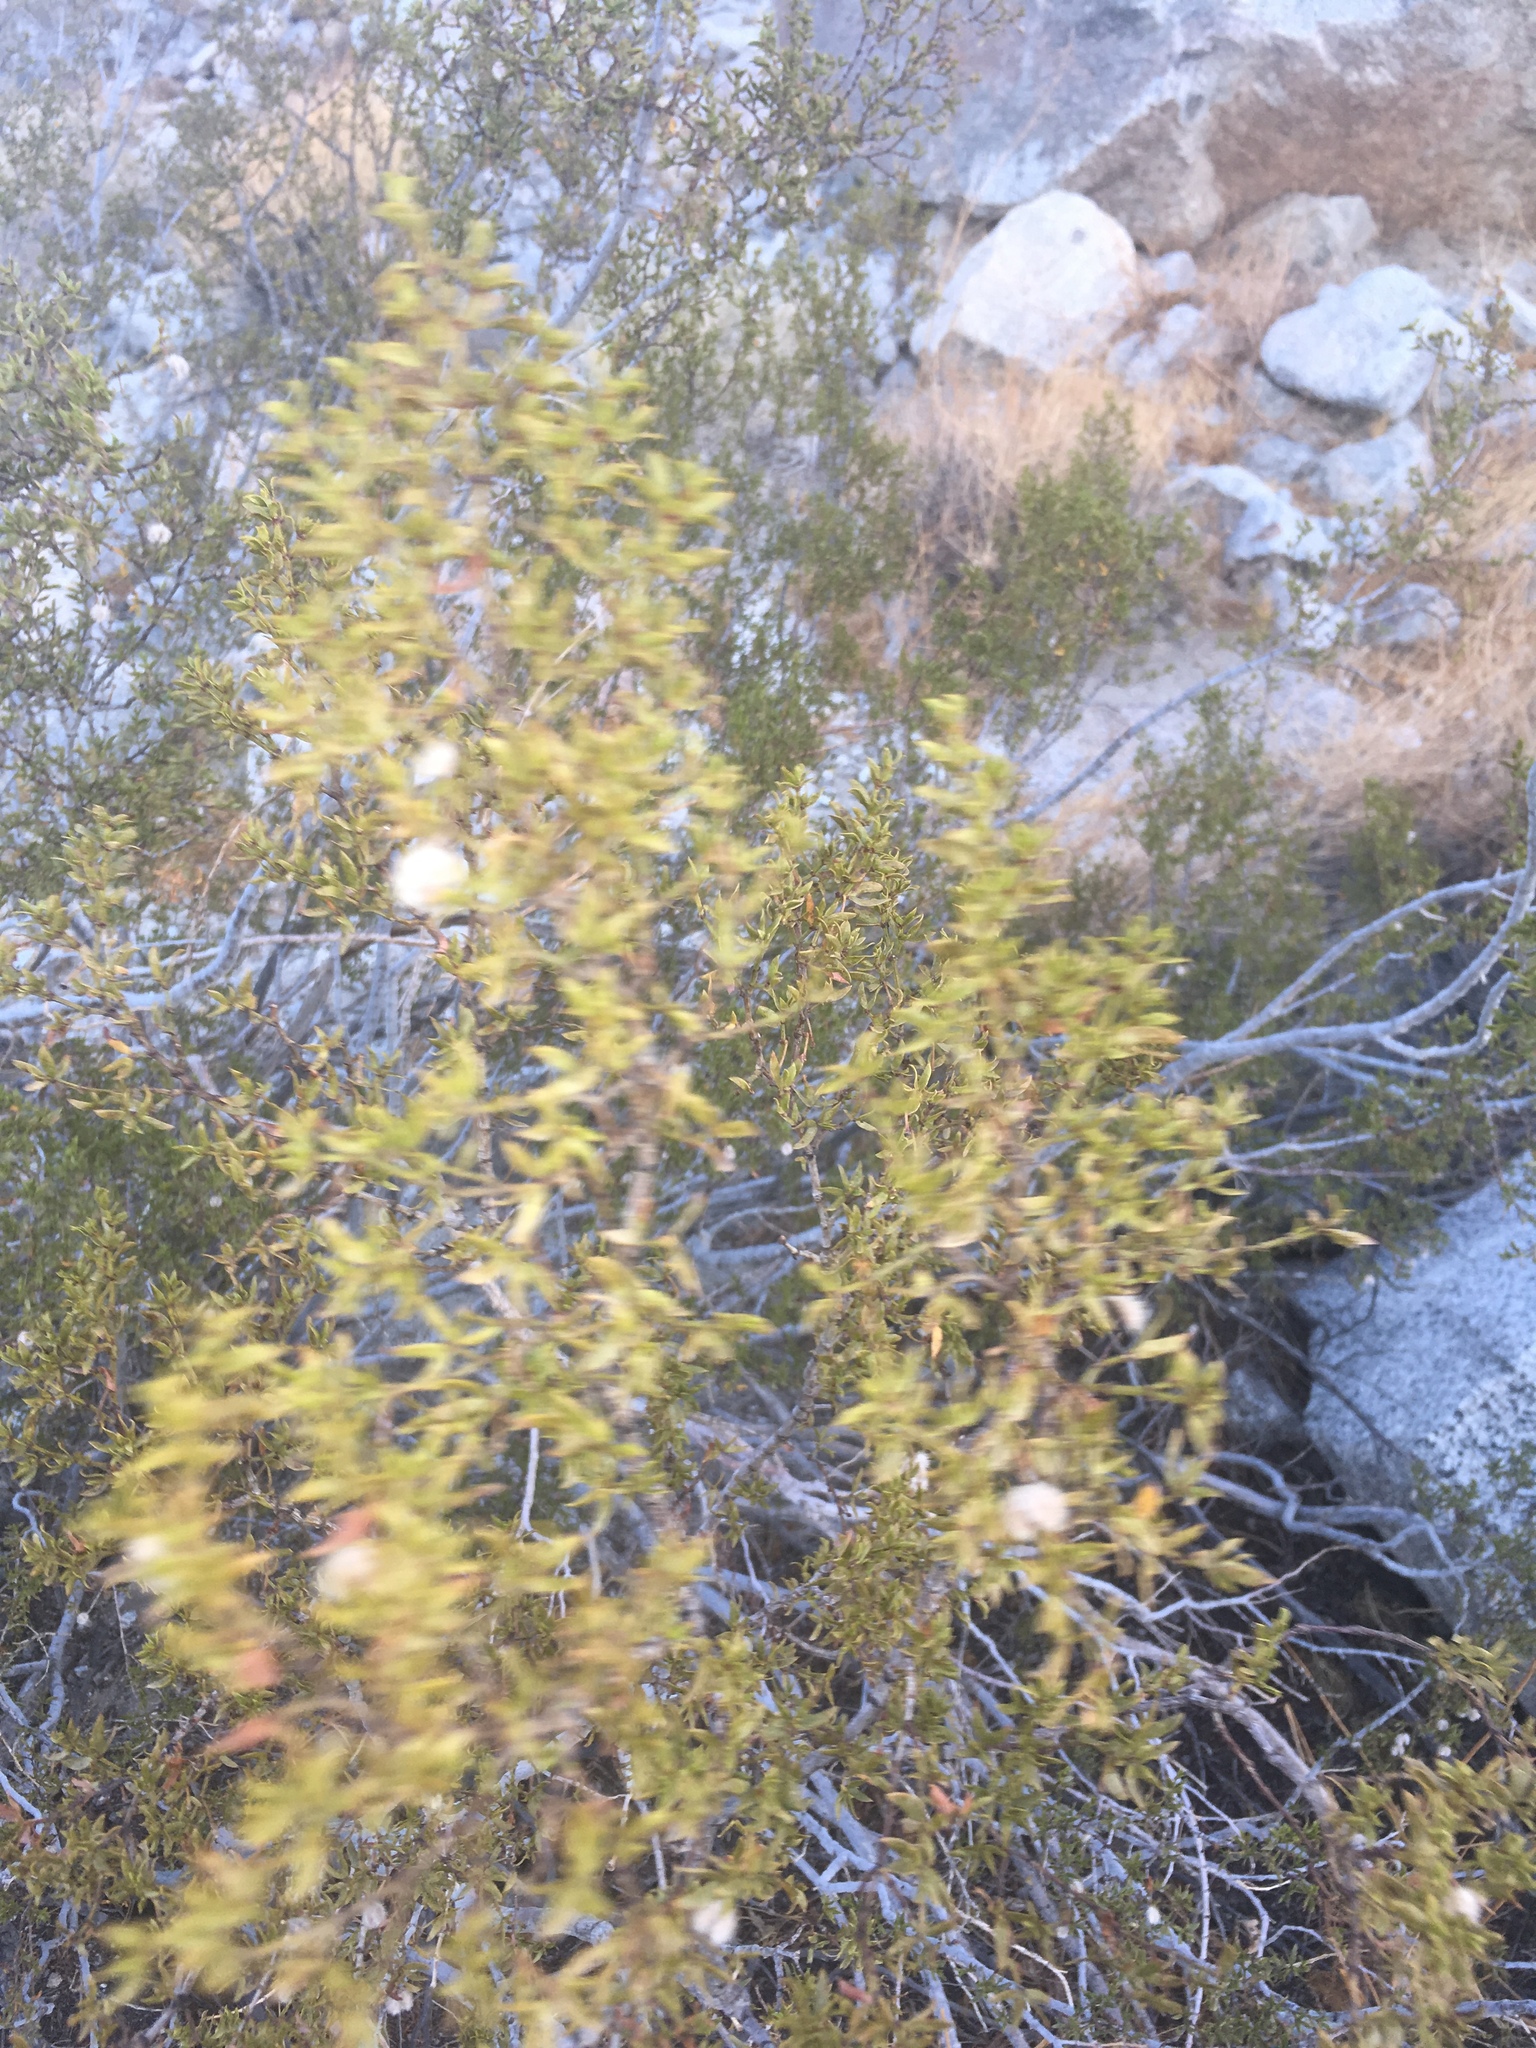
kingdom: Plantae
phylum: Tracheophyta
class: Magnoliopsida
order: Zygophyllales
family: Zygophyllaceae
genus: Larrea
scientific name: Larrea tridentata
